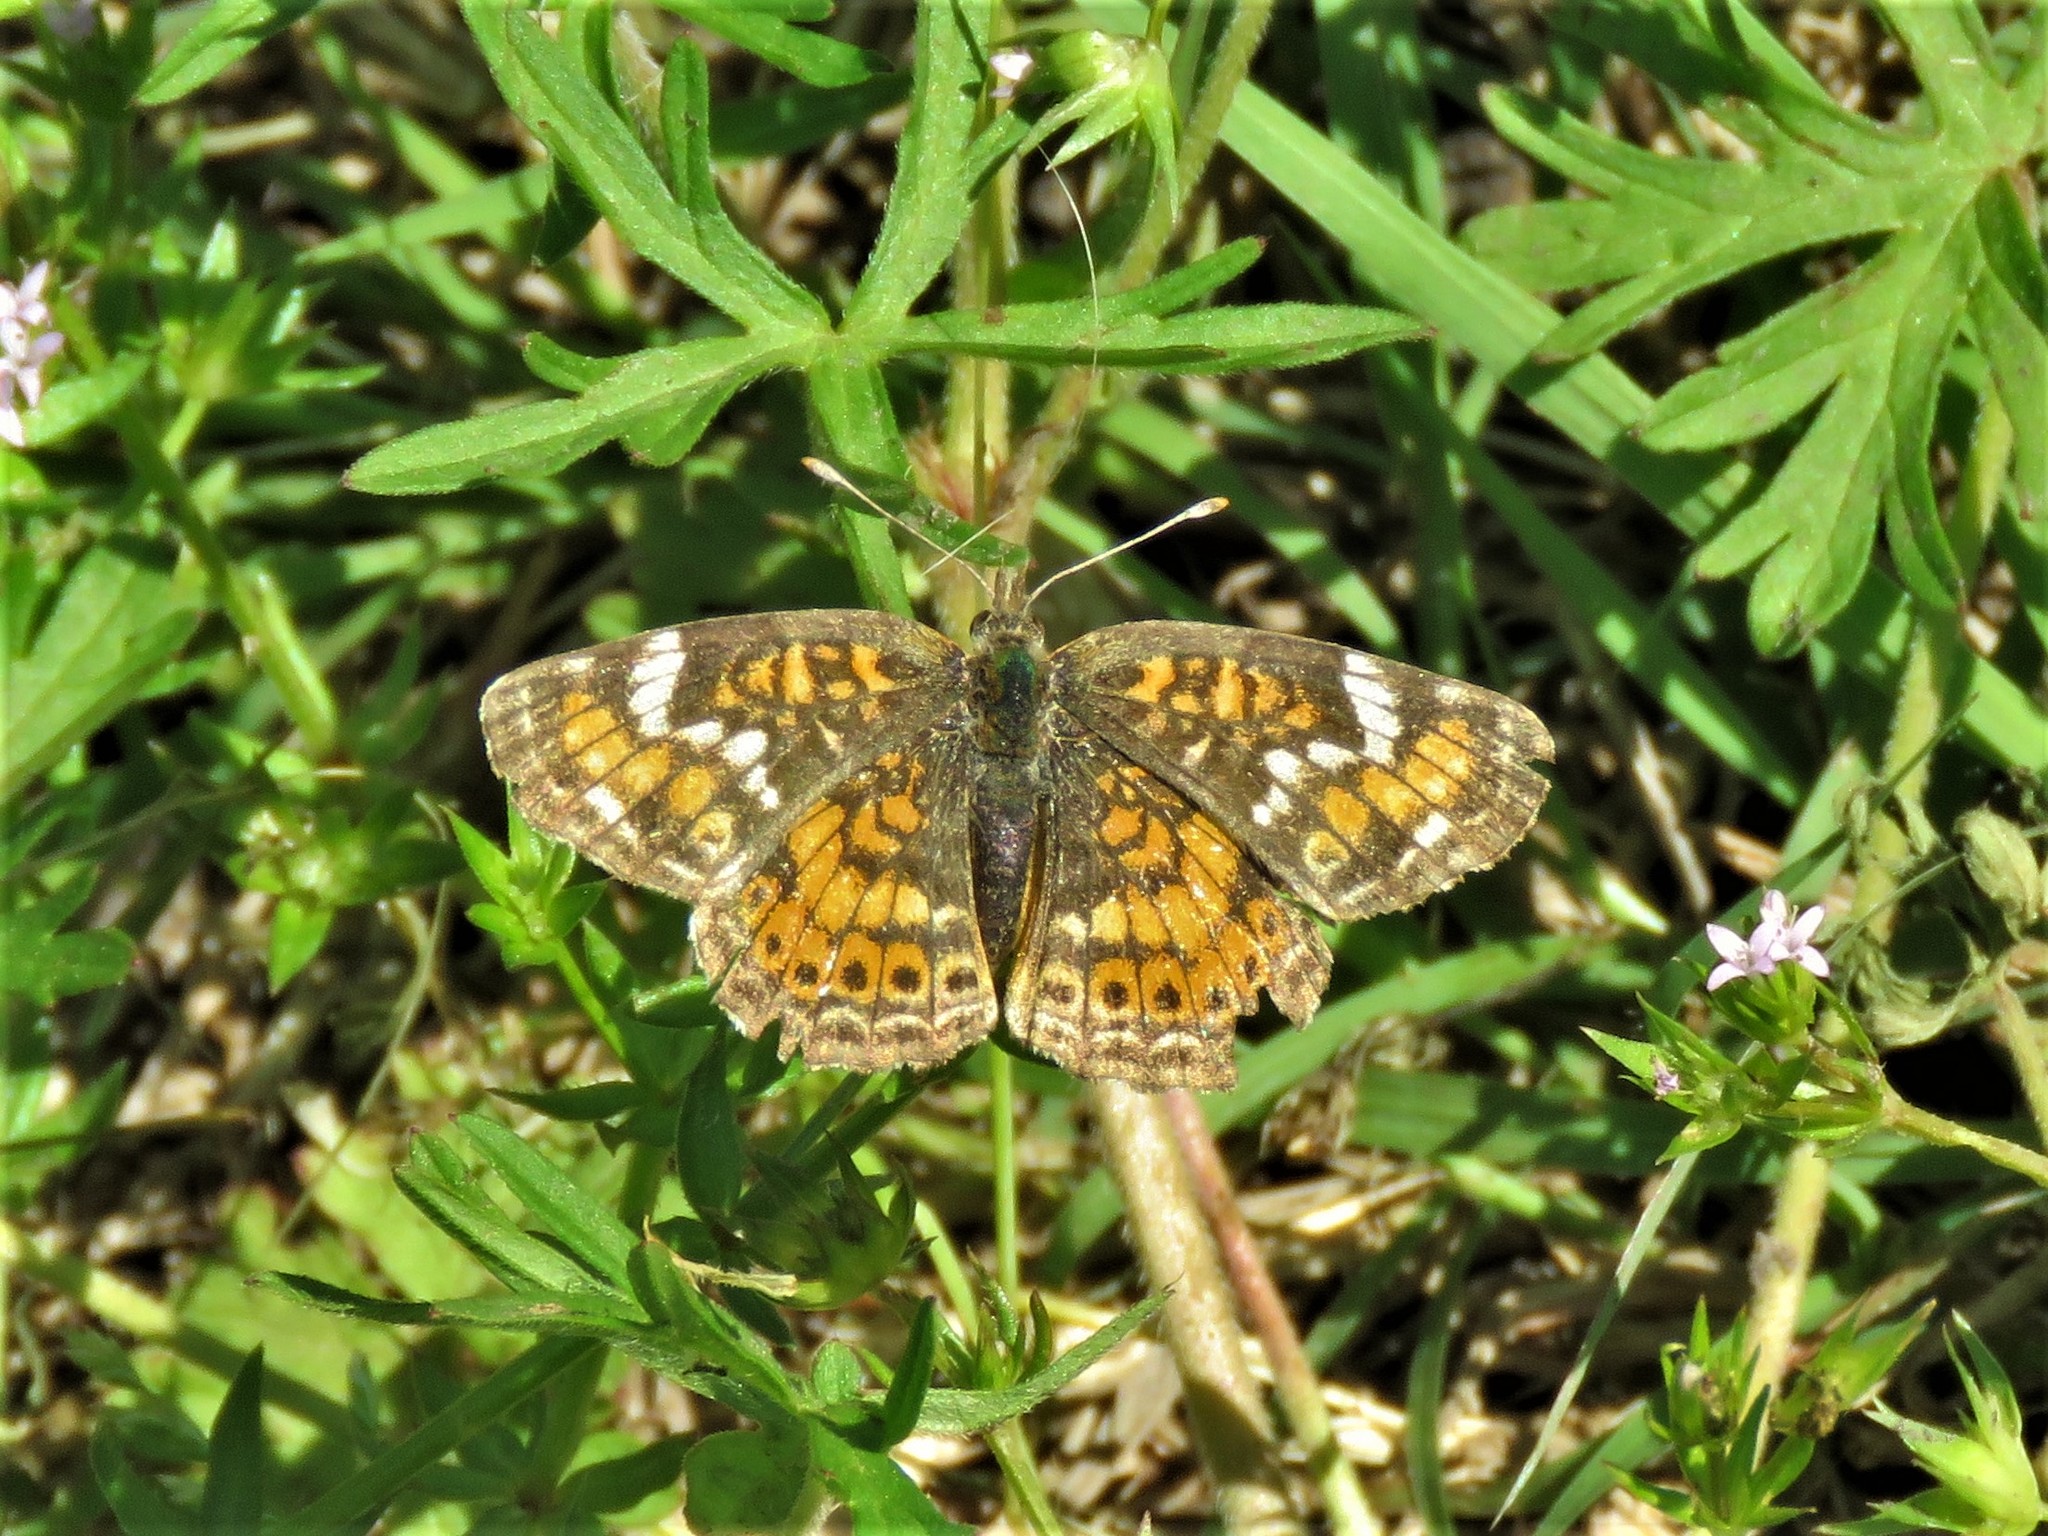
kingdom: Animalia
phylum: Arthropoda
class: Insecta
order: Lepidoptera
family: Nymphalidae
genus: Phyciodes
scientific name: Phyciodes phaon
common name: Phaon crescent
